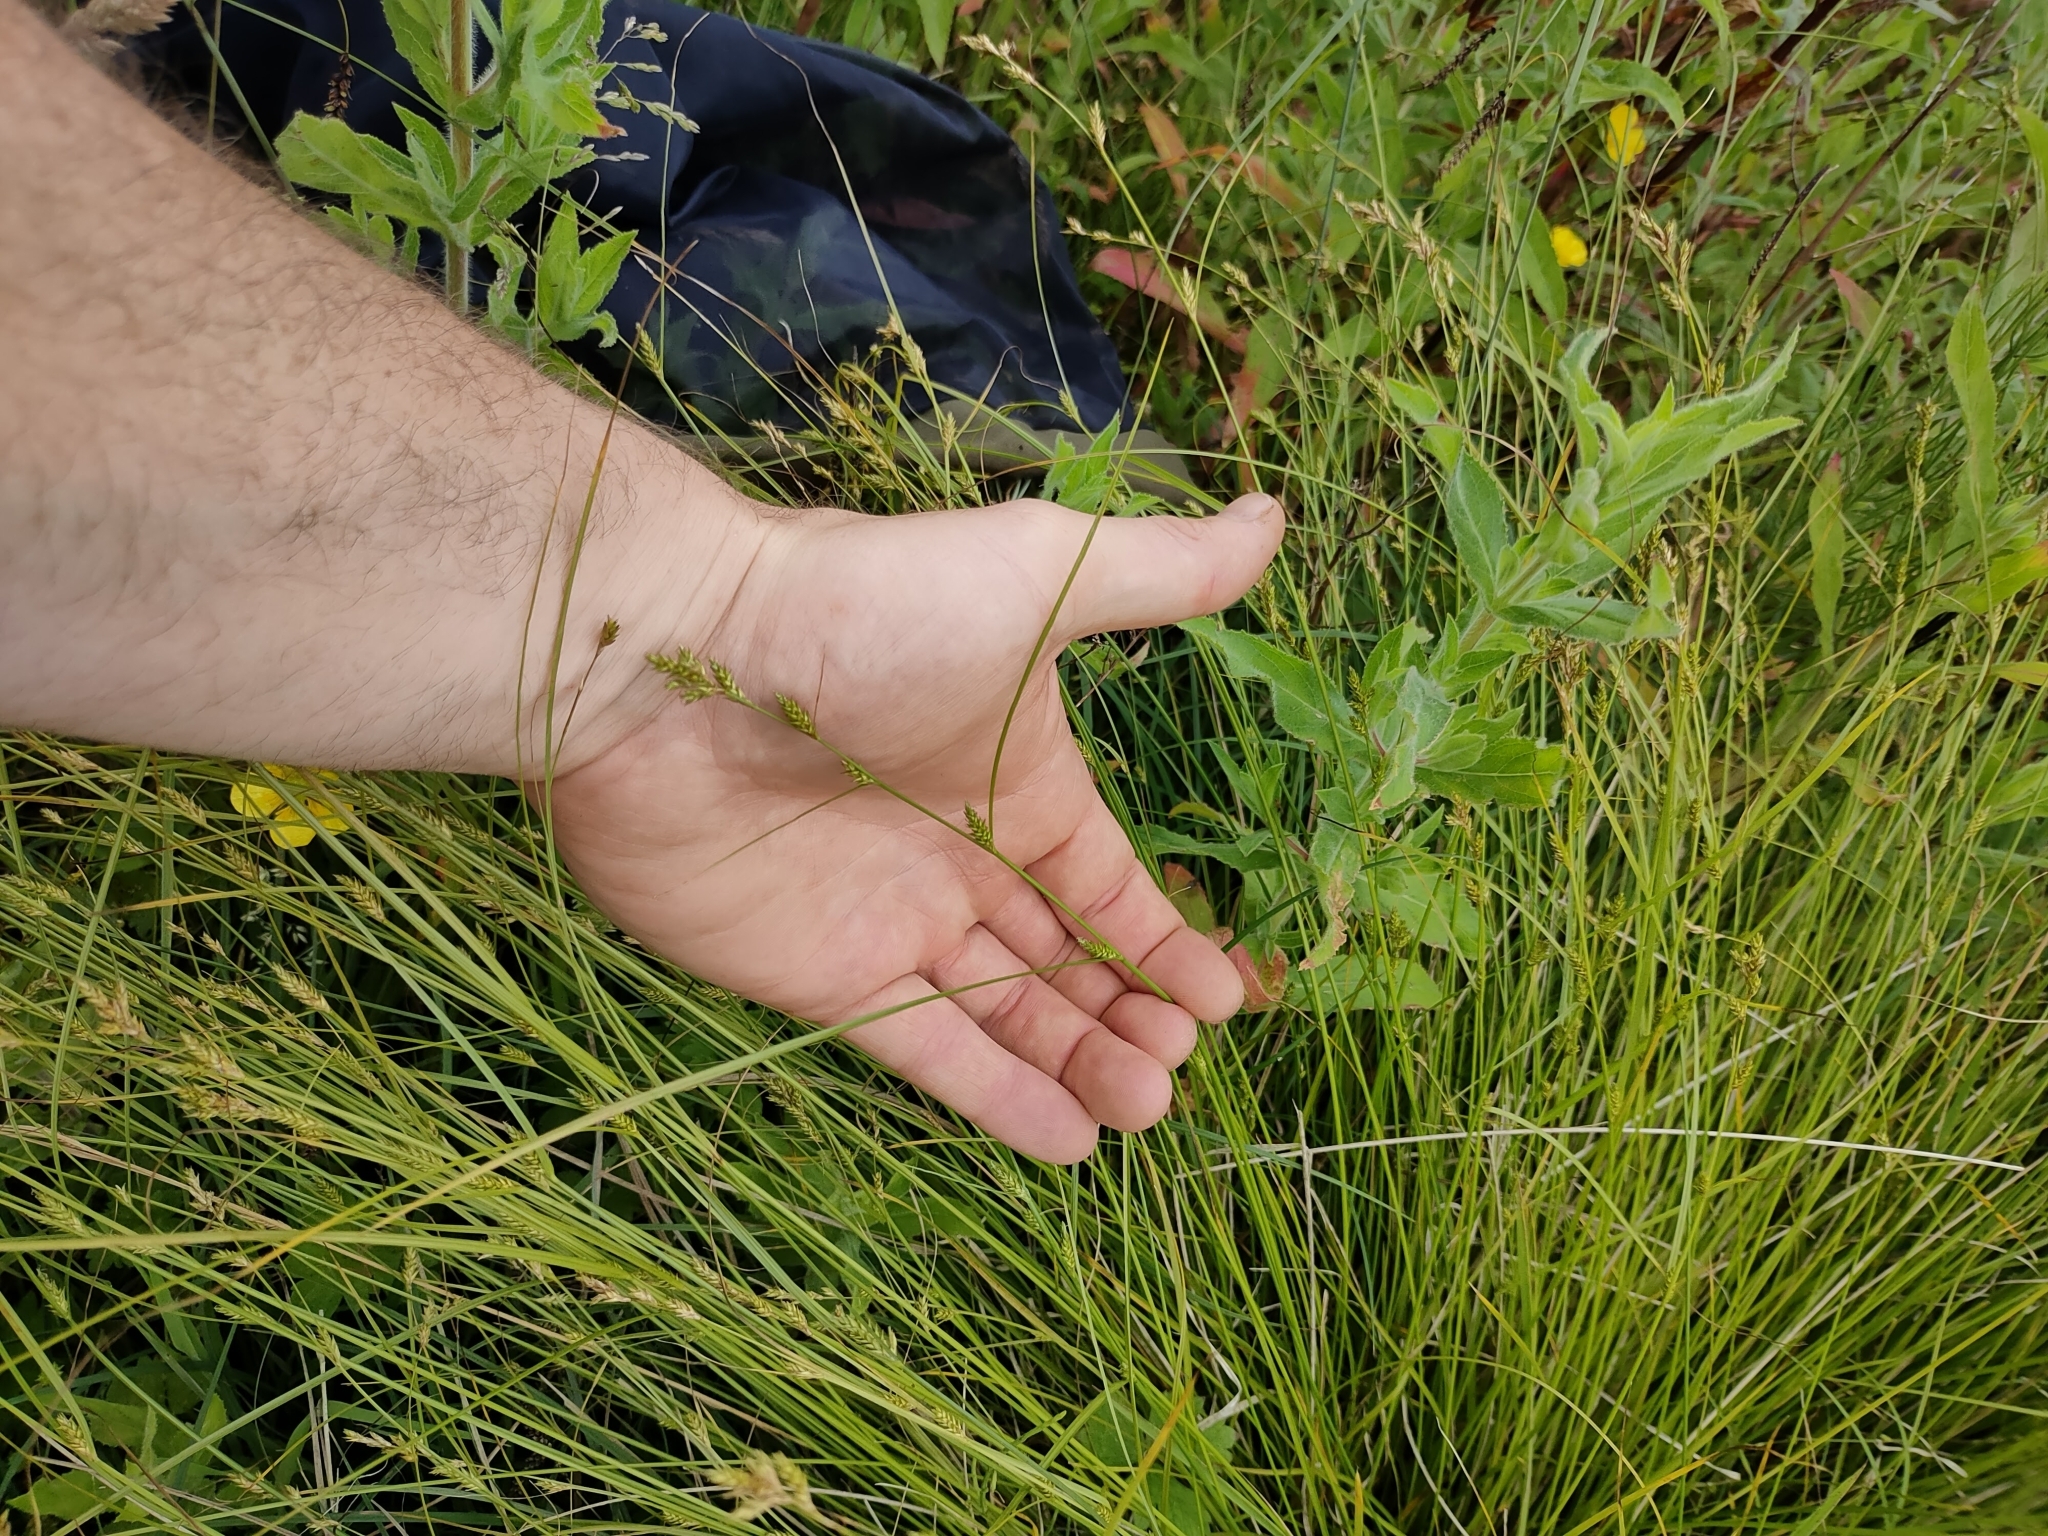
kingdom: Plantae
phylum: Tracheophyta
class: Liliopsida
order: Poales
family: Cyperaceae
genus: Carex
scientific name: Carex remota
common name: Remote sedge
